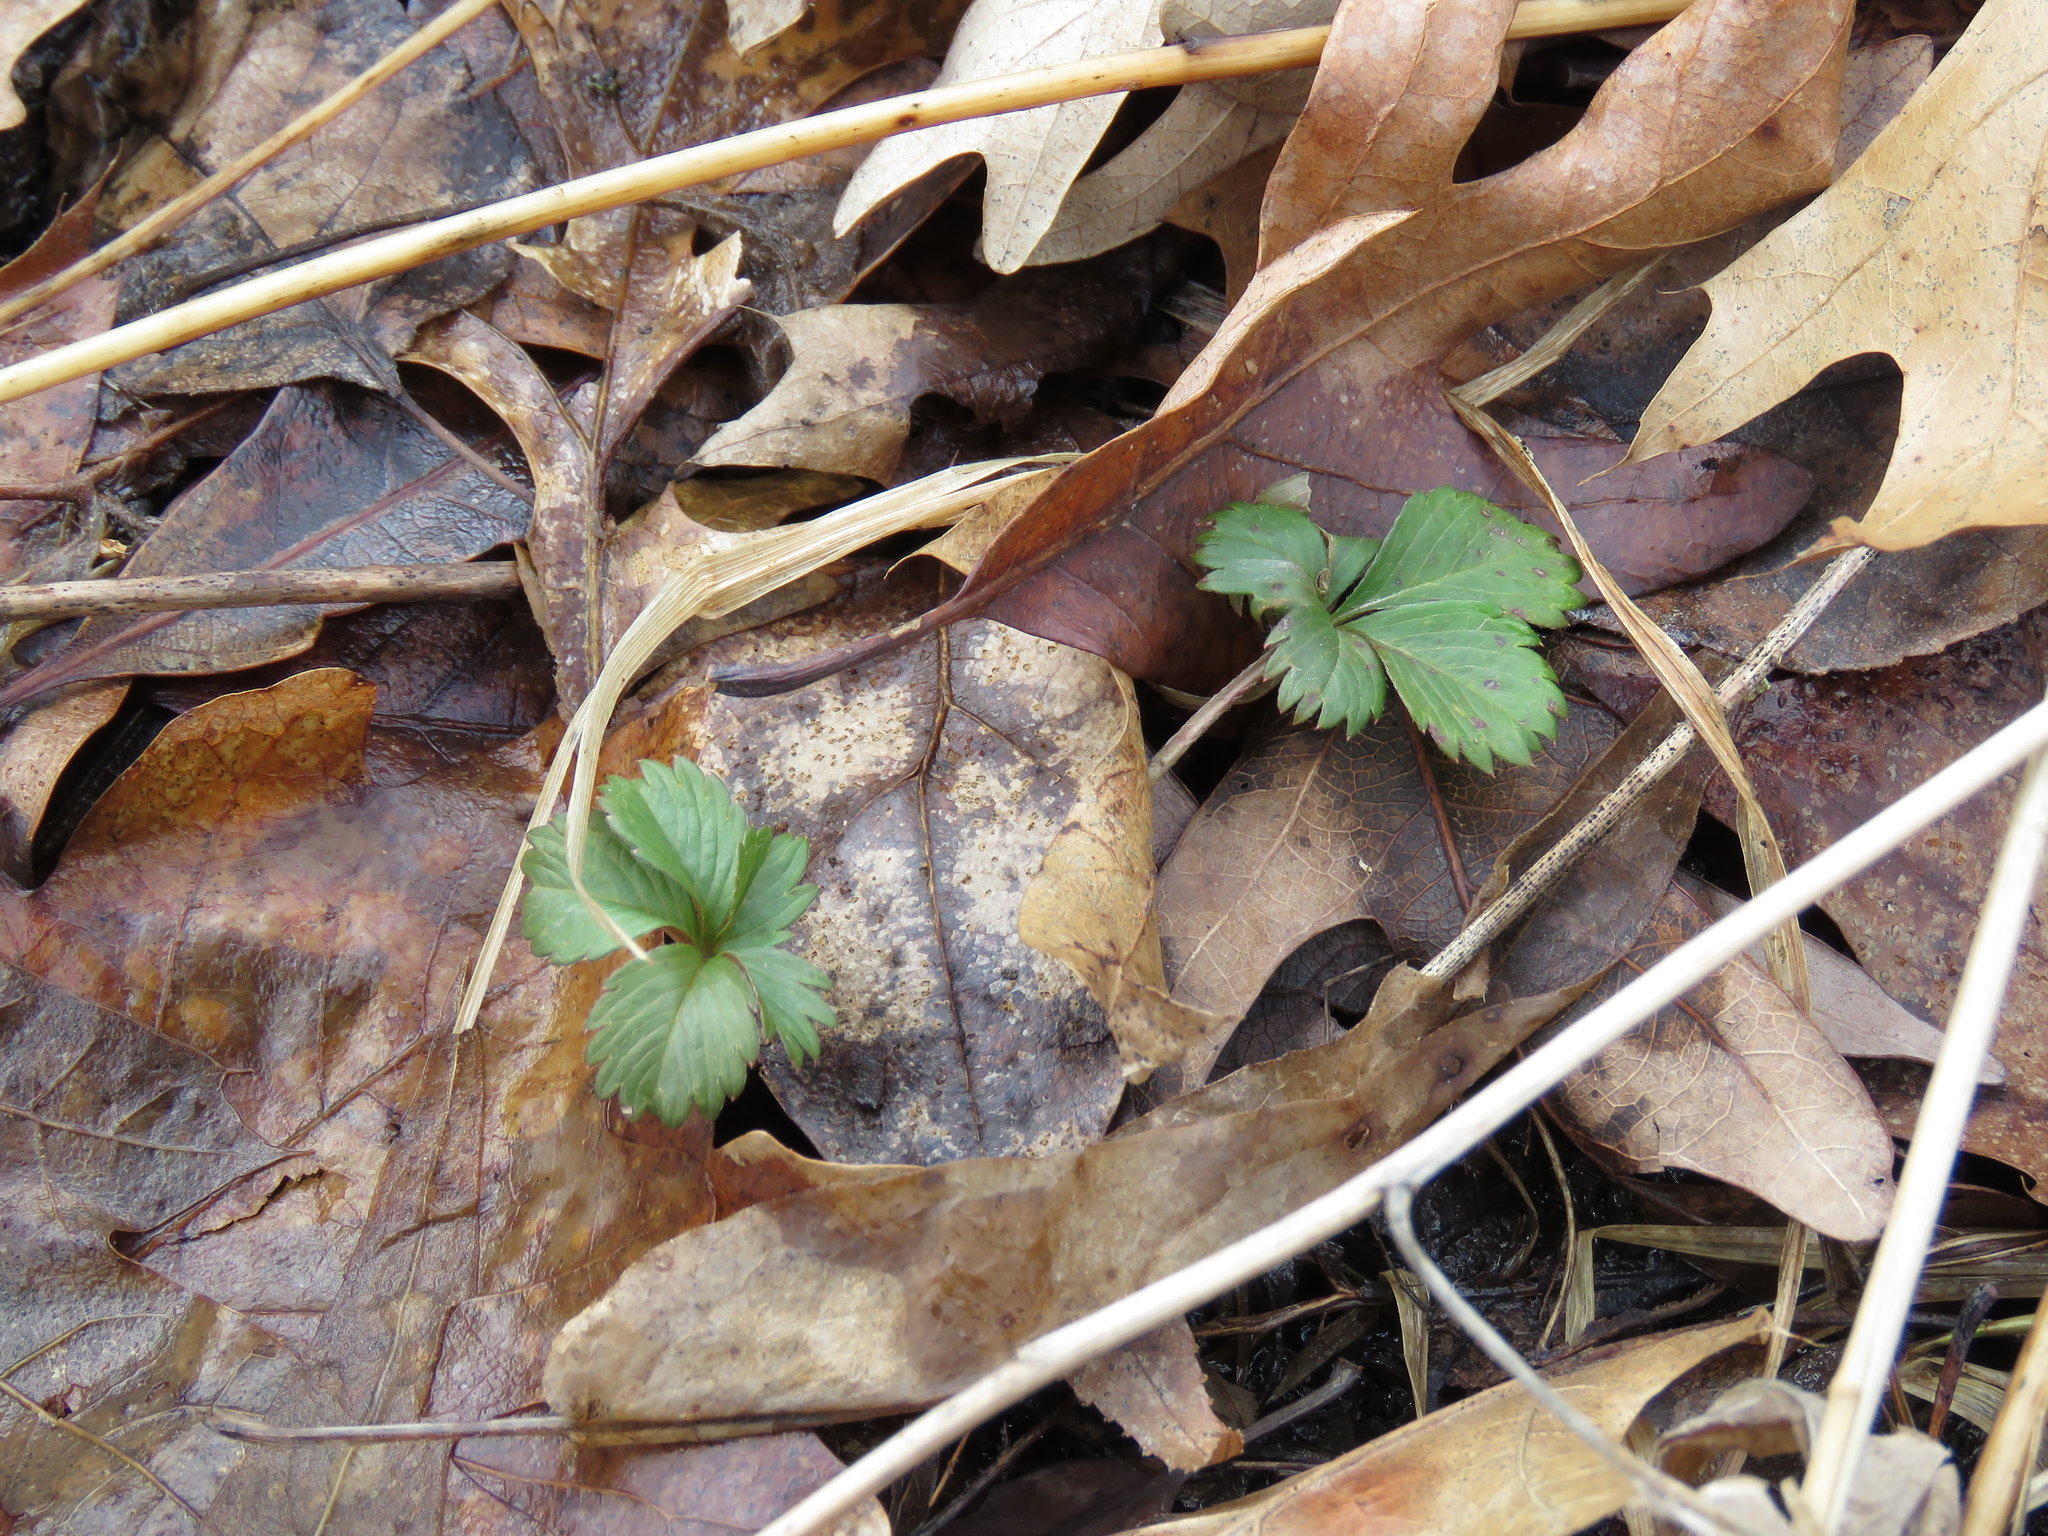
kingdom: Plantae
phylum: Tracheophyta
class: Magnoliopsida
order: Rosales
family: Rosaceae
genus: Potentilla
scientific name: Potentilla simplex
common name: Old field cinquefoil
